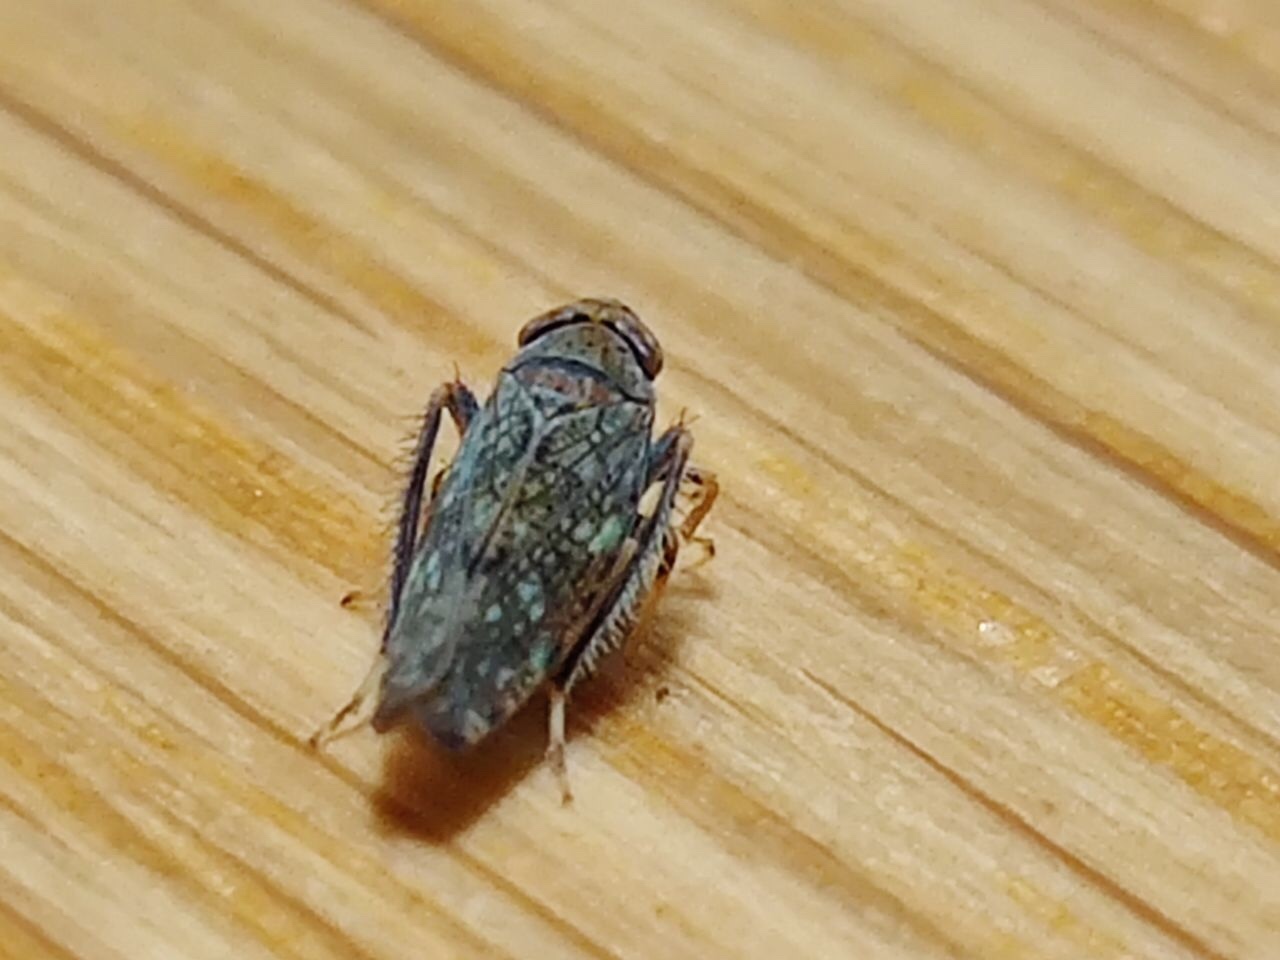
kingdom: Animalia
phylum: Arthropoda
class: Insecta
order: Hemiptera
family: Cicadellidae
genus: Orientus
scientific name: Orientus ishidae
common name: Japanese leafhopper
